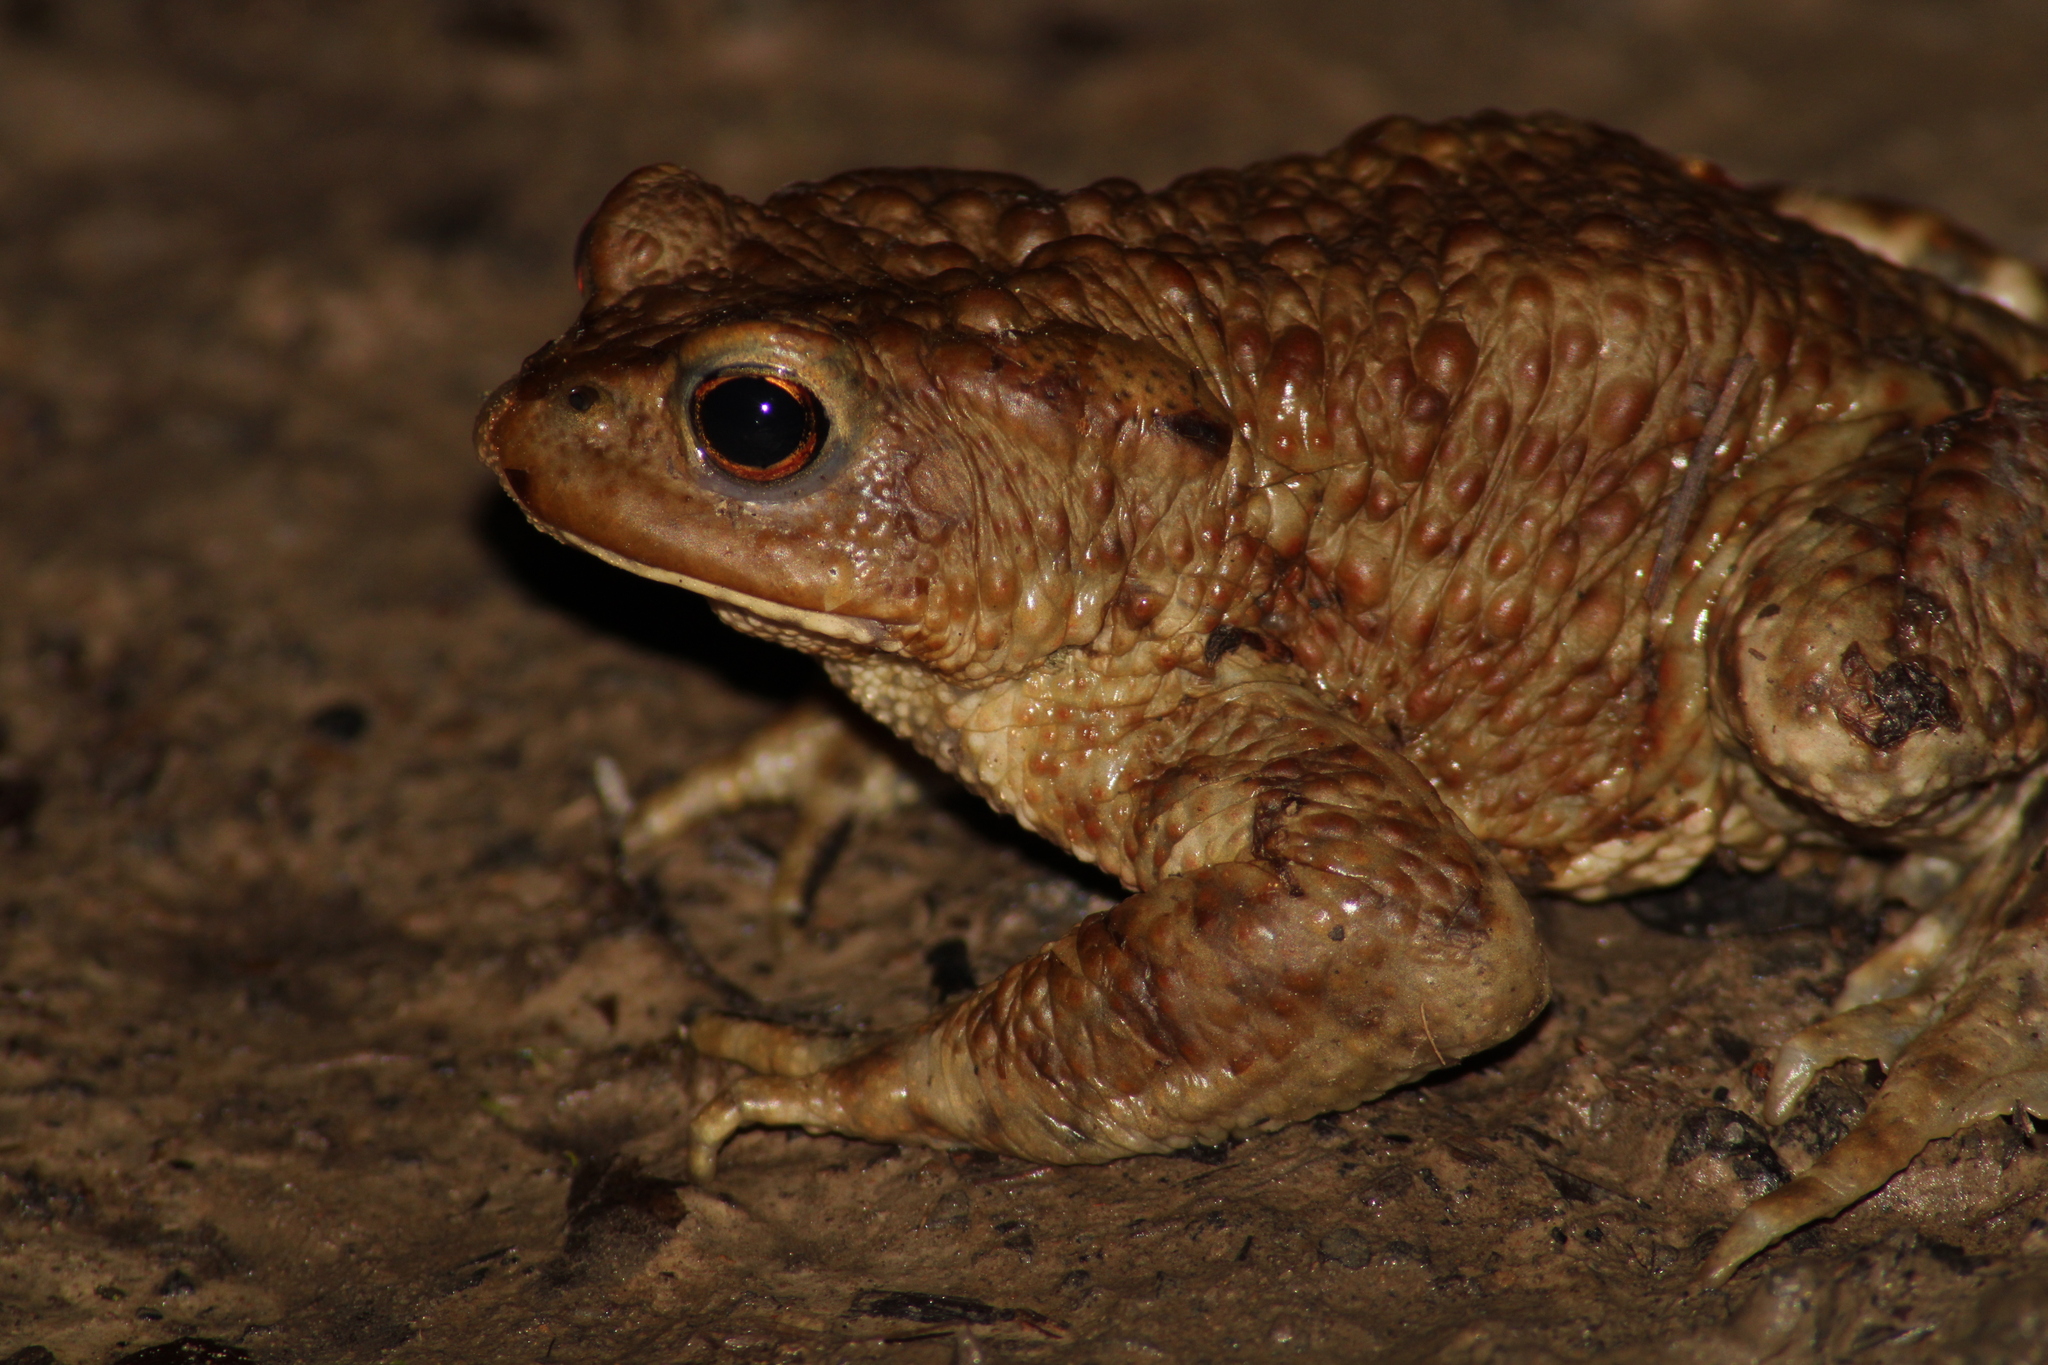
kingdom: Animalia
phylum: Chordata
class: Amphibia
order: Anura
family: Bufonidae
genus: Bufo
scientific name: Bufo bufo
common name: Common toad
